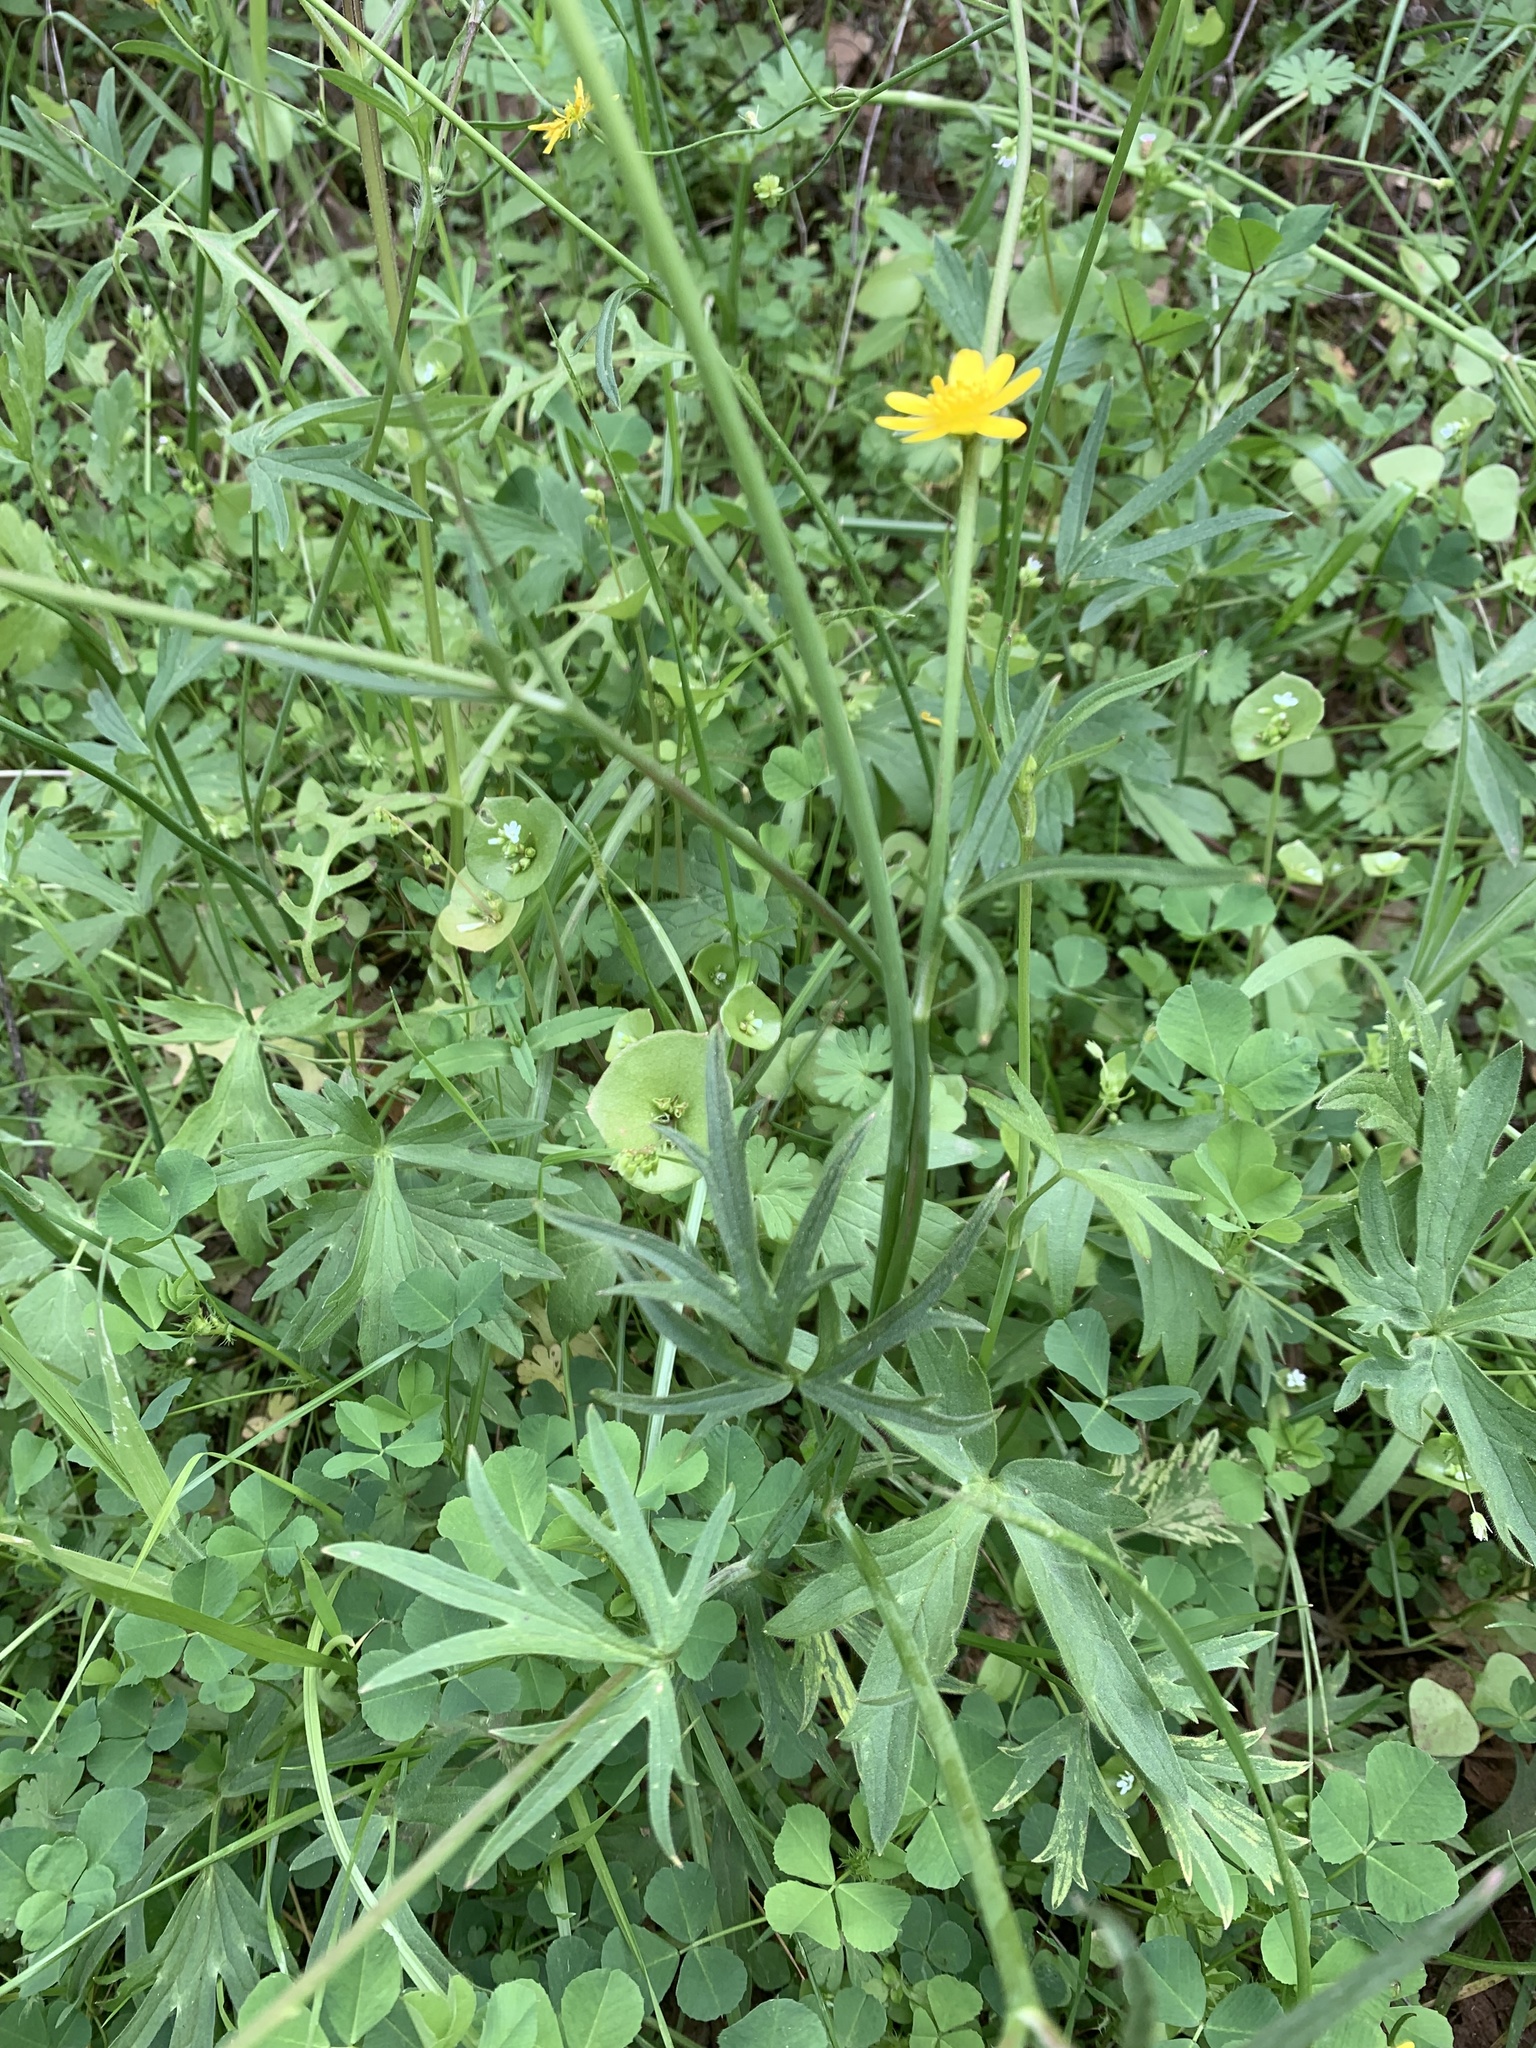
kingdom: Plantae
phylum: Tracheophyta
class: Magnoliopsida
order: Ranunculales
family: Ranunculaceae
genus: Ranunculus
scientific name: Ranunculus californicus
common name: California buttercup
